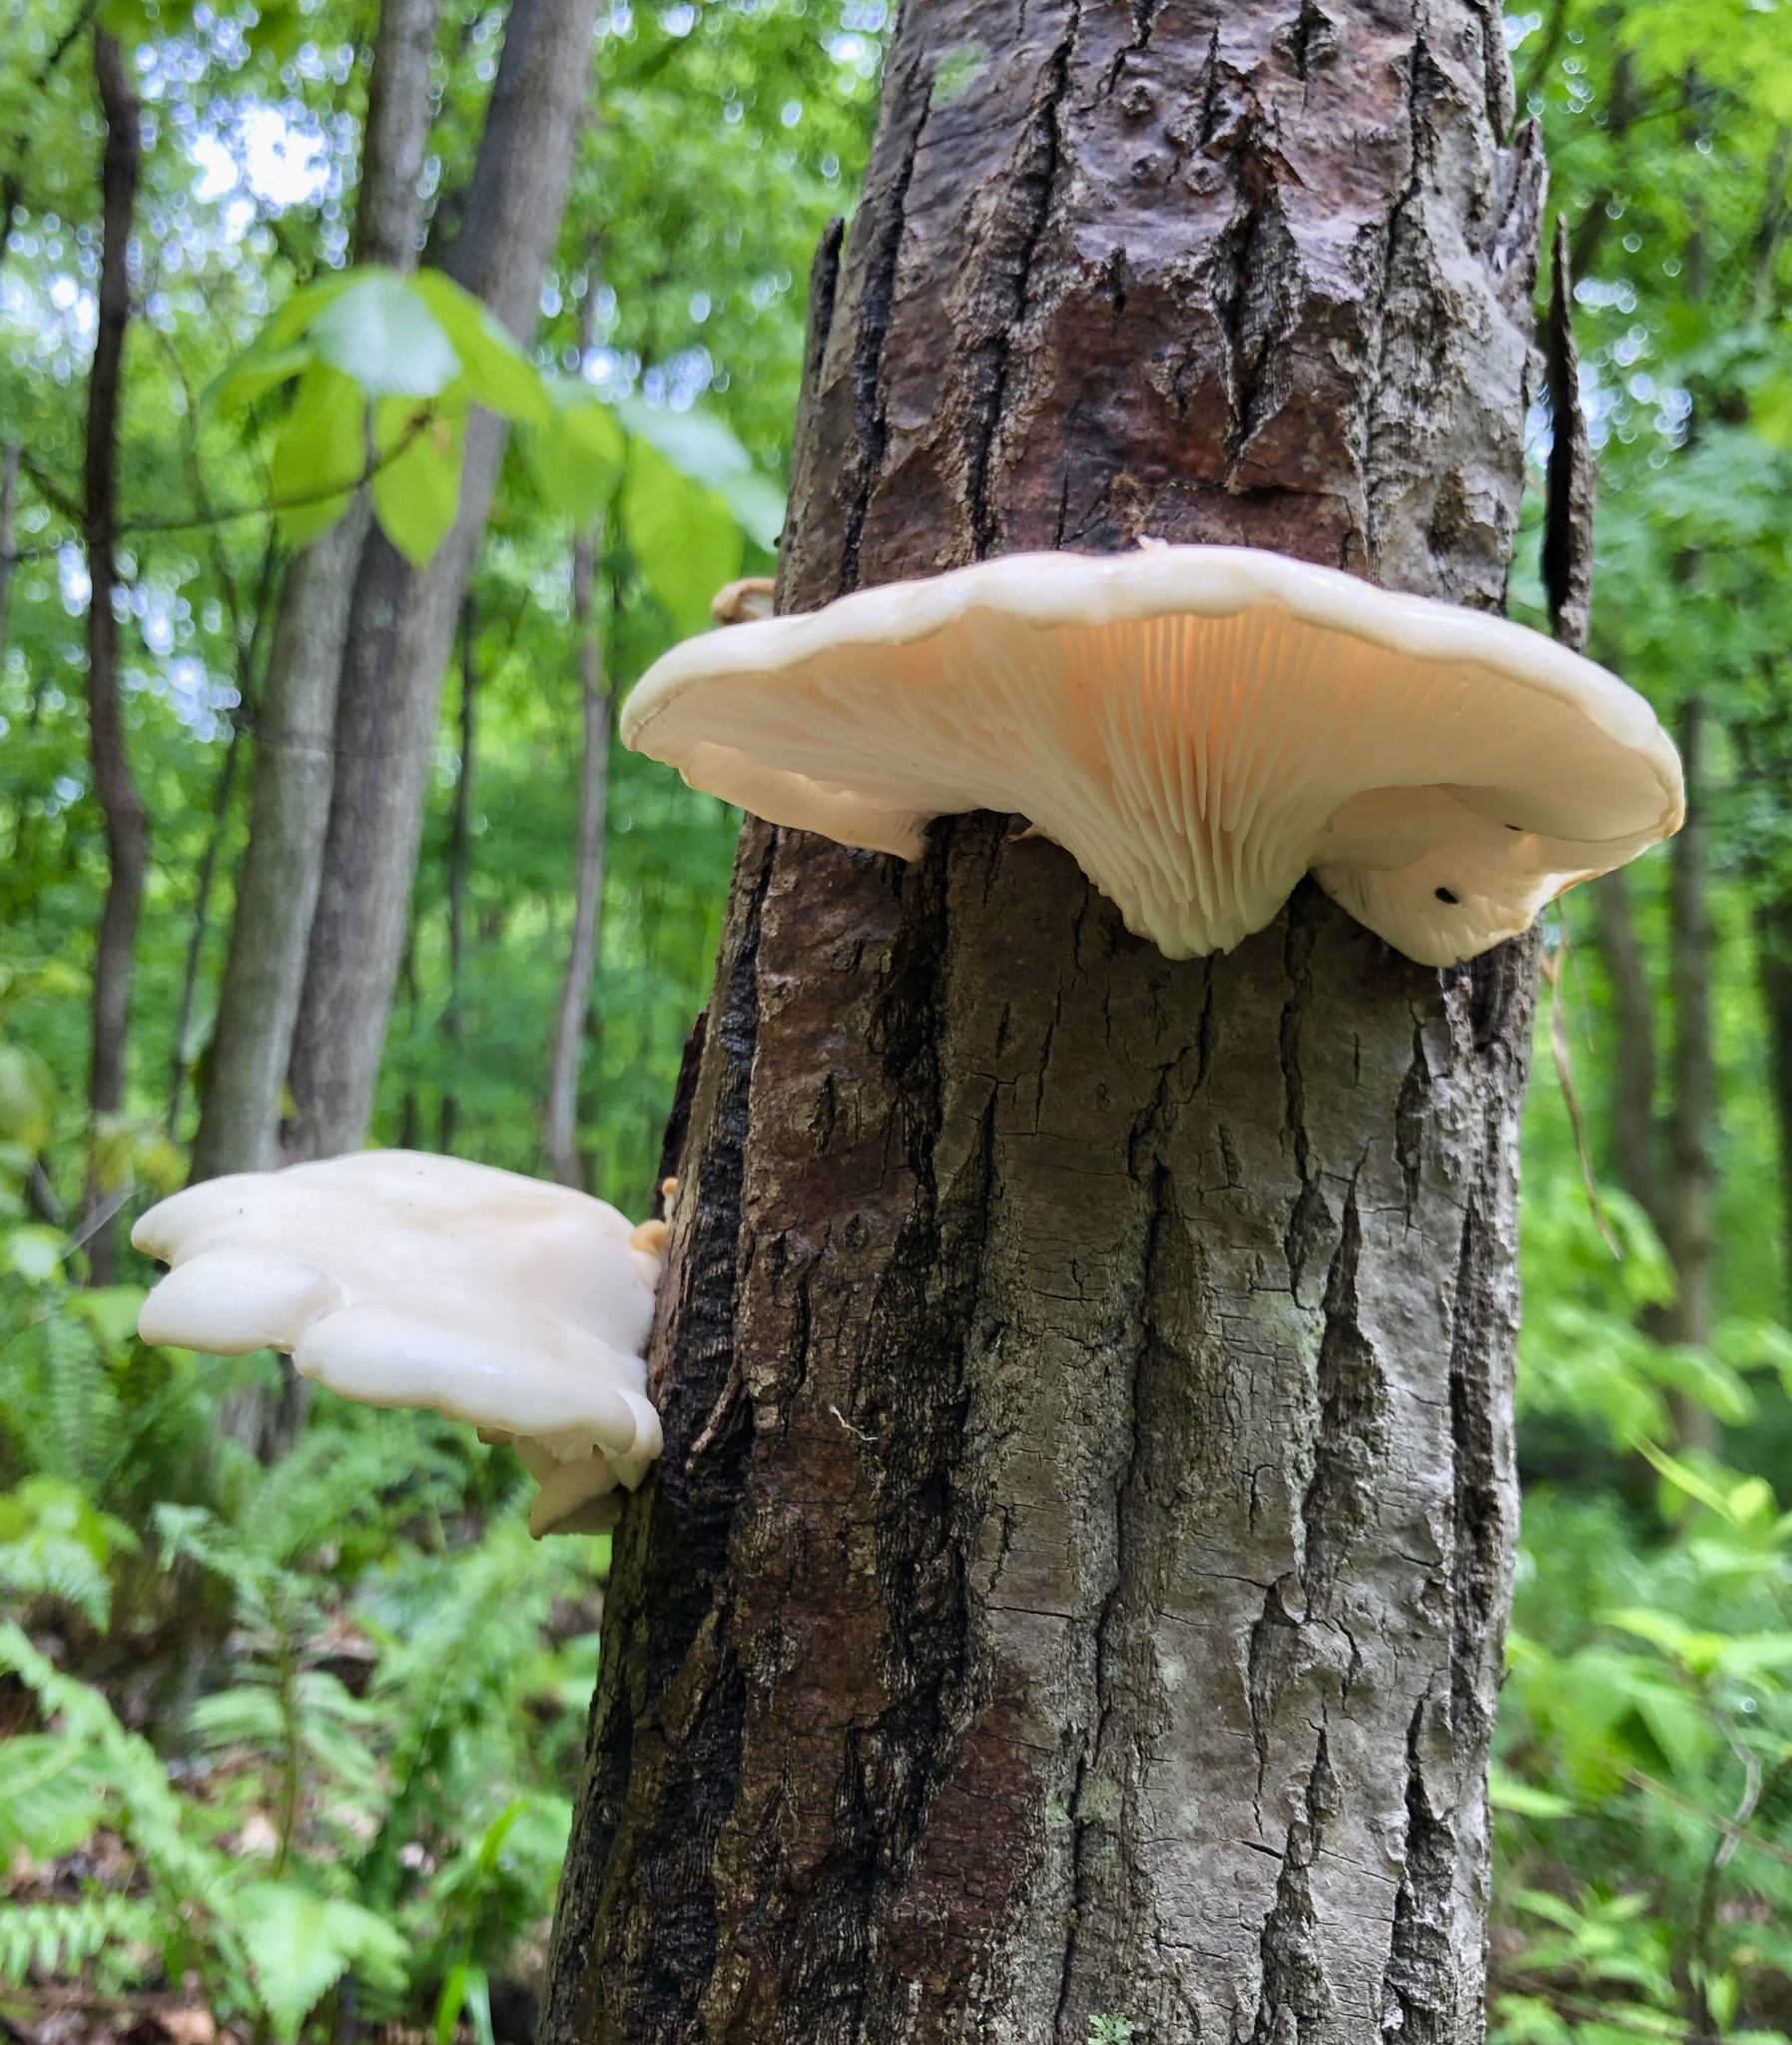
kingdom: Fungi
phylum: Basidiomycota
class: Agaricomycetes
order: Agaricales
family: Pleurotaceae
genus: Pleurotus
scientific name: Pleurotus pulmonarius
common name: Pale oyster
